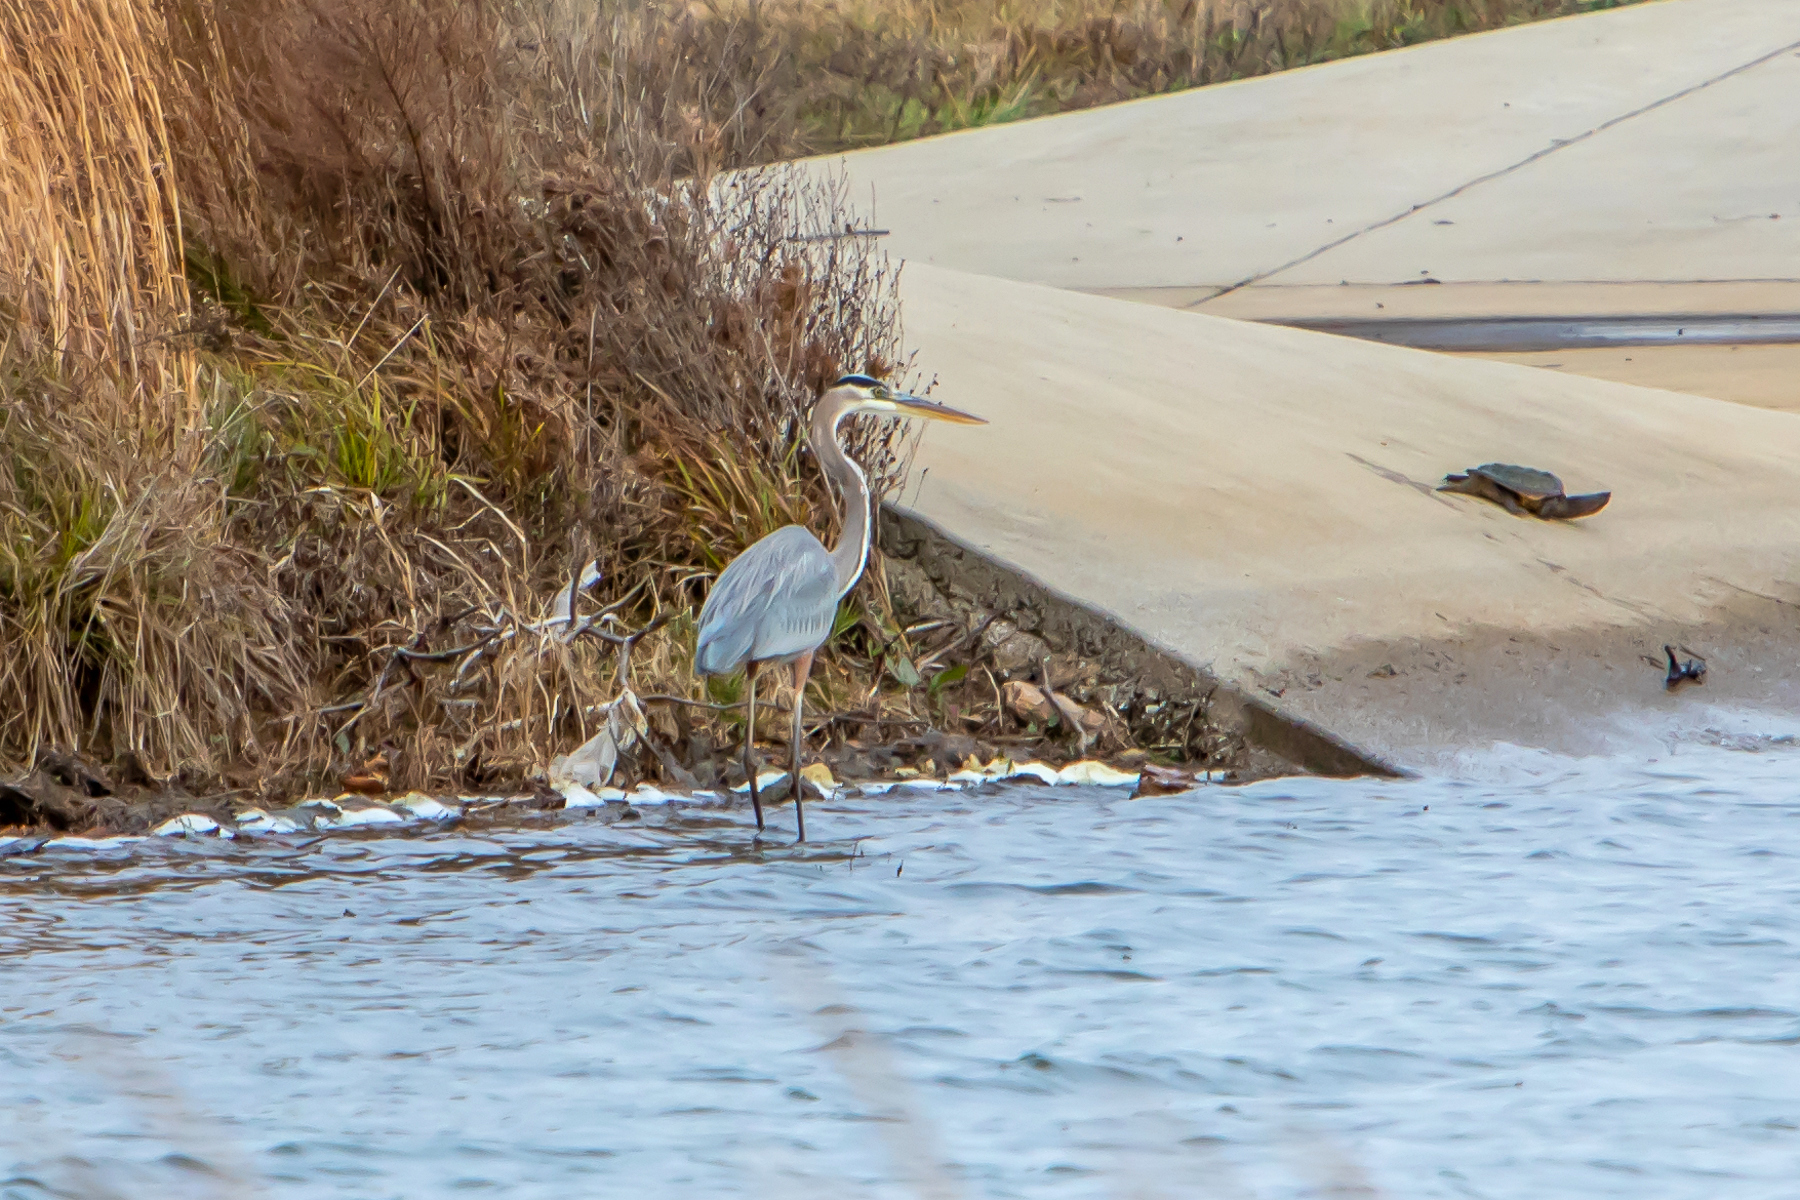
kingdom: Animalia
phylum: Chordata
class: Aves
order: Pelecaniformes
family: Ardeidae
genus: Ardea
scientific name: Ardea herodias
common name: Great blue heron
